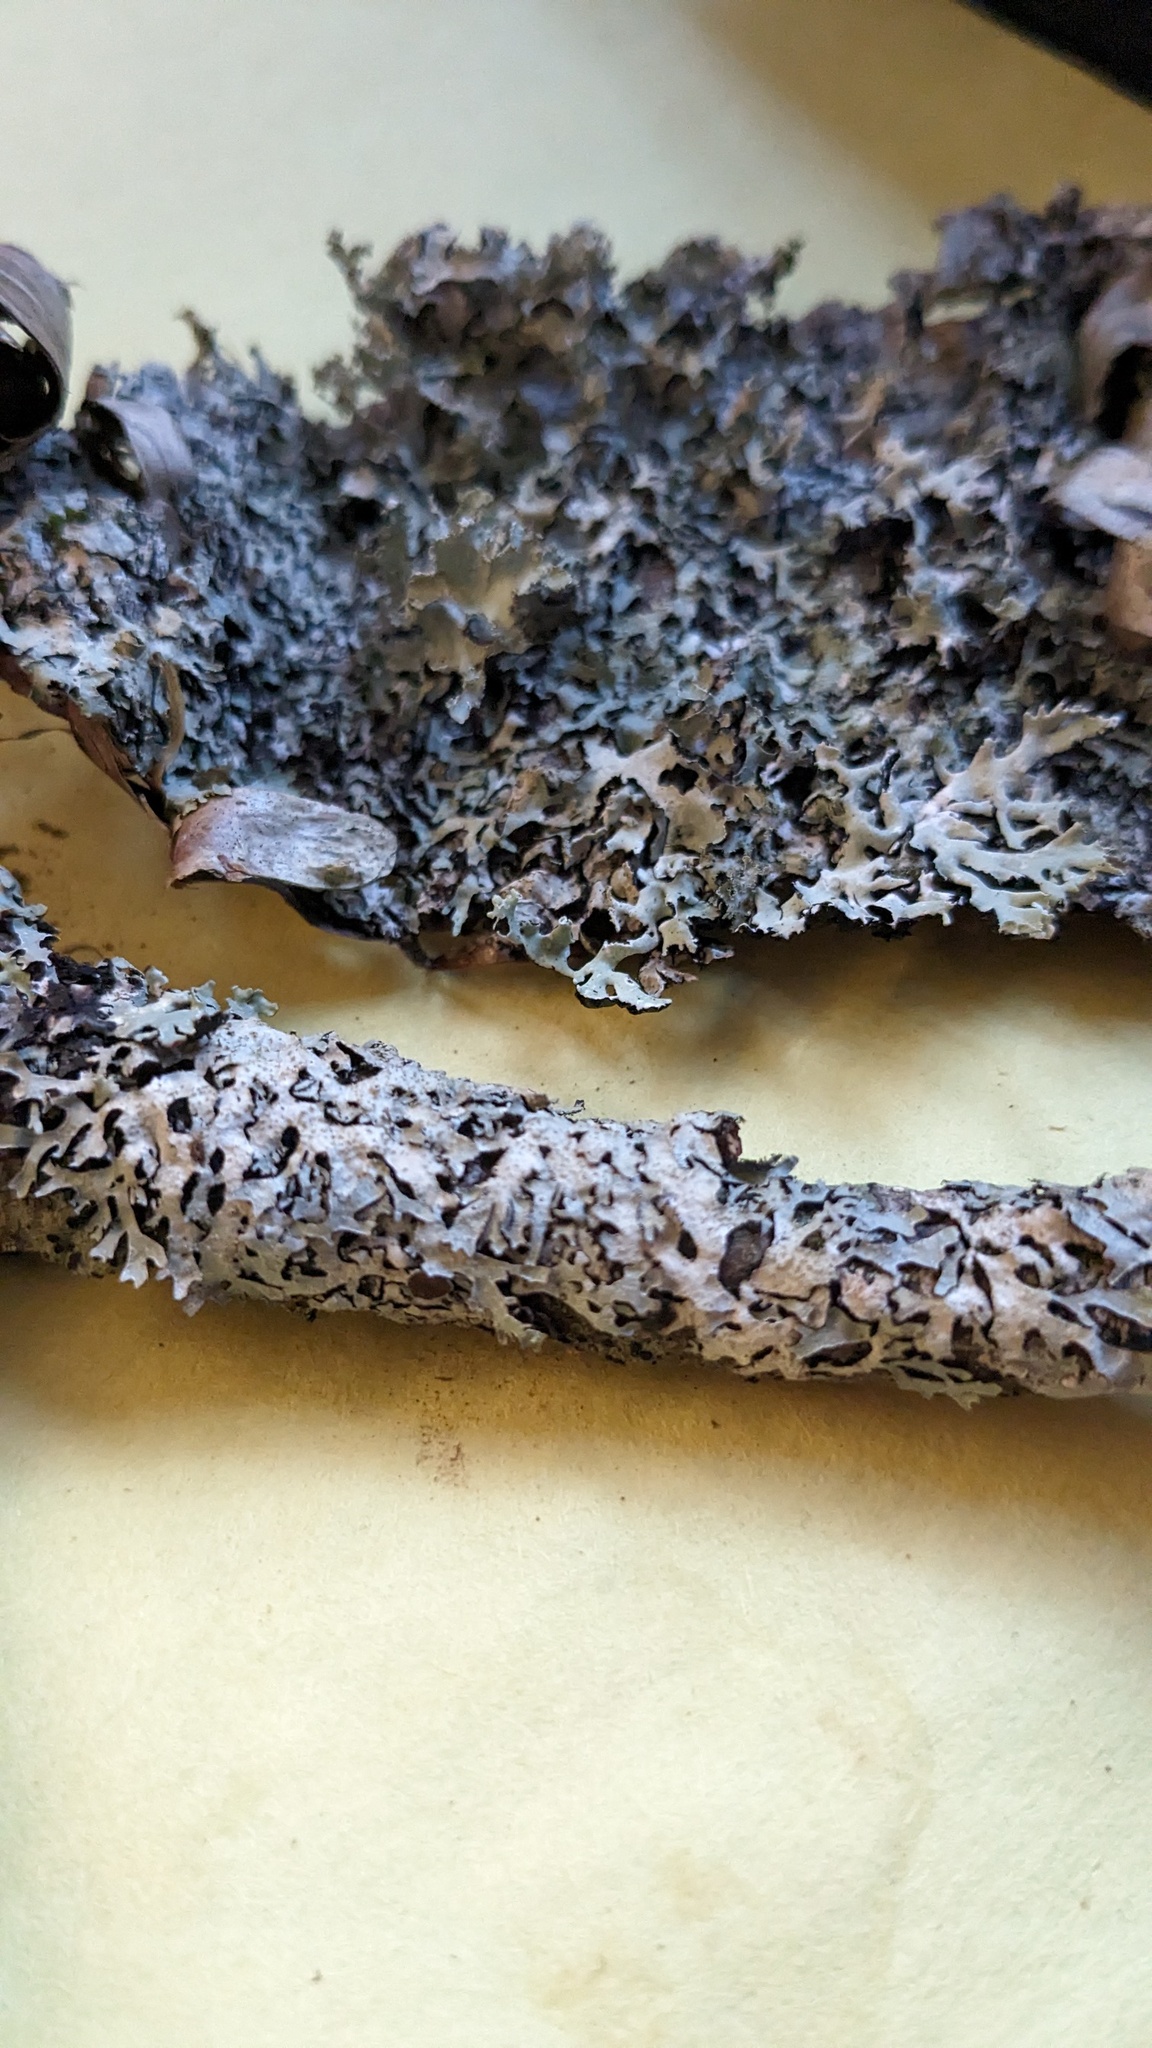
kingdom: Fungi
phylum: Ascomycota
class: Lecanoromycetes
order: Lecanorales
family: Parmeliaceae
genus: Parmelia
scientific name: Parmelia squarrosa
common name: Bottle brush shield lichen
